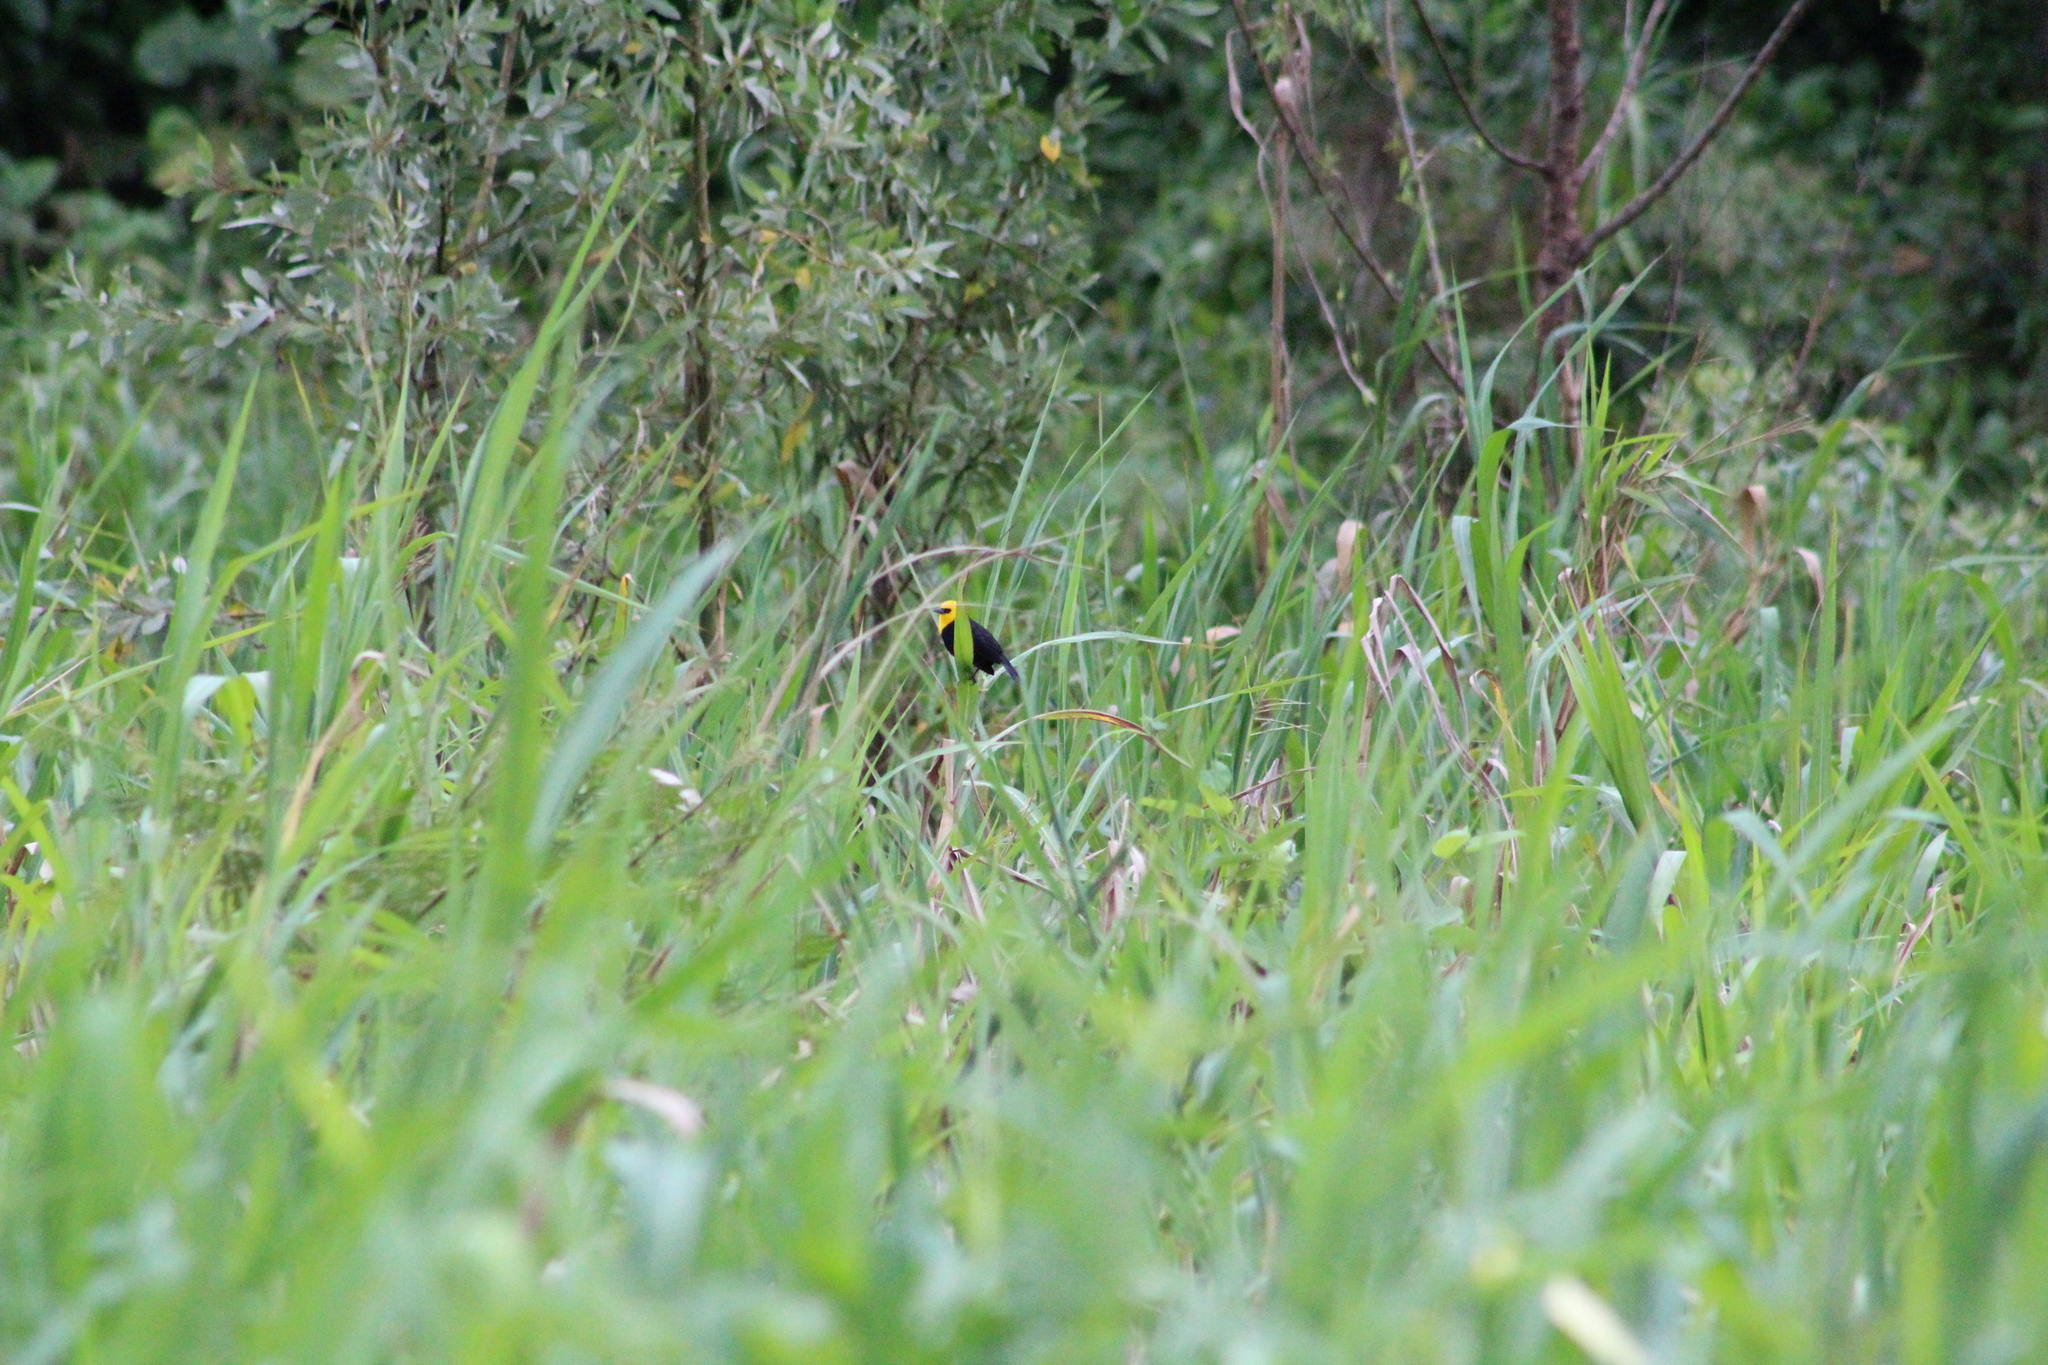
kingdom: Animalia
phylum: Chordata
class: Aves
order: Passeriformes
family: Icteridae
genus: Chrysomus
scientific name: Chrysomus icterocephalus
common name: Yellow-hooded blackbird
